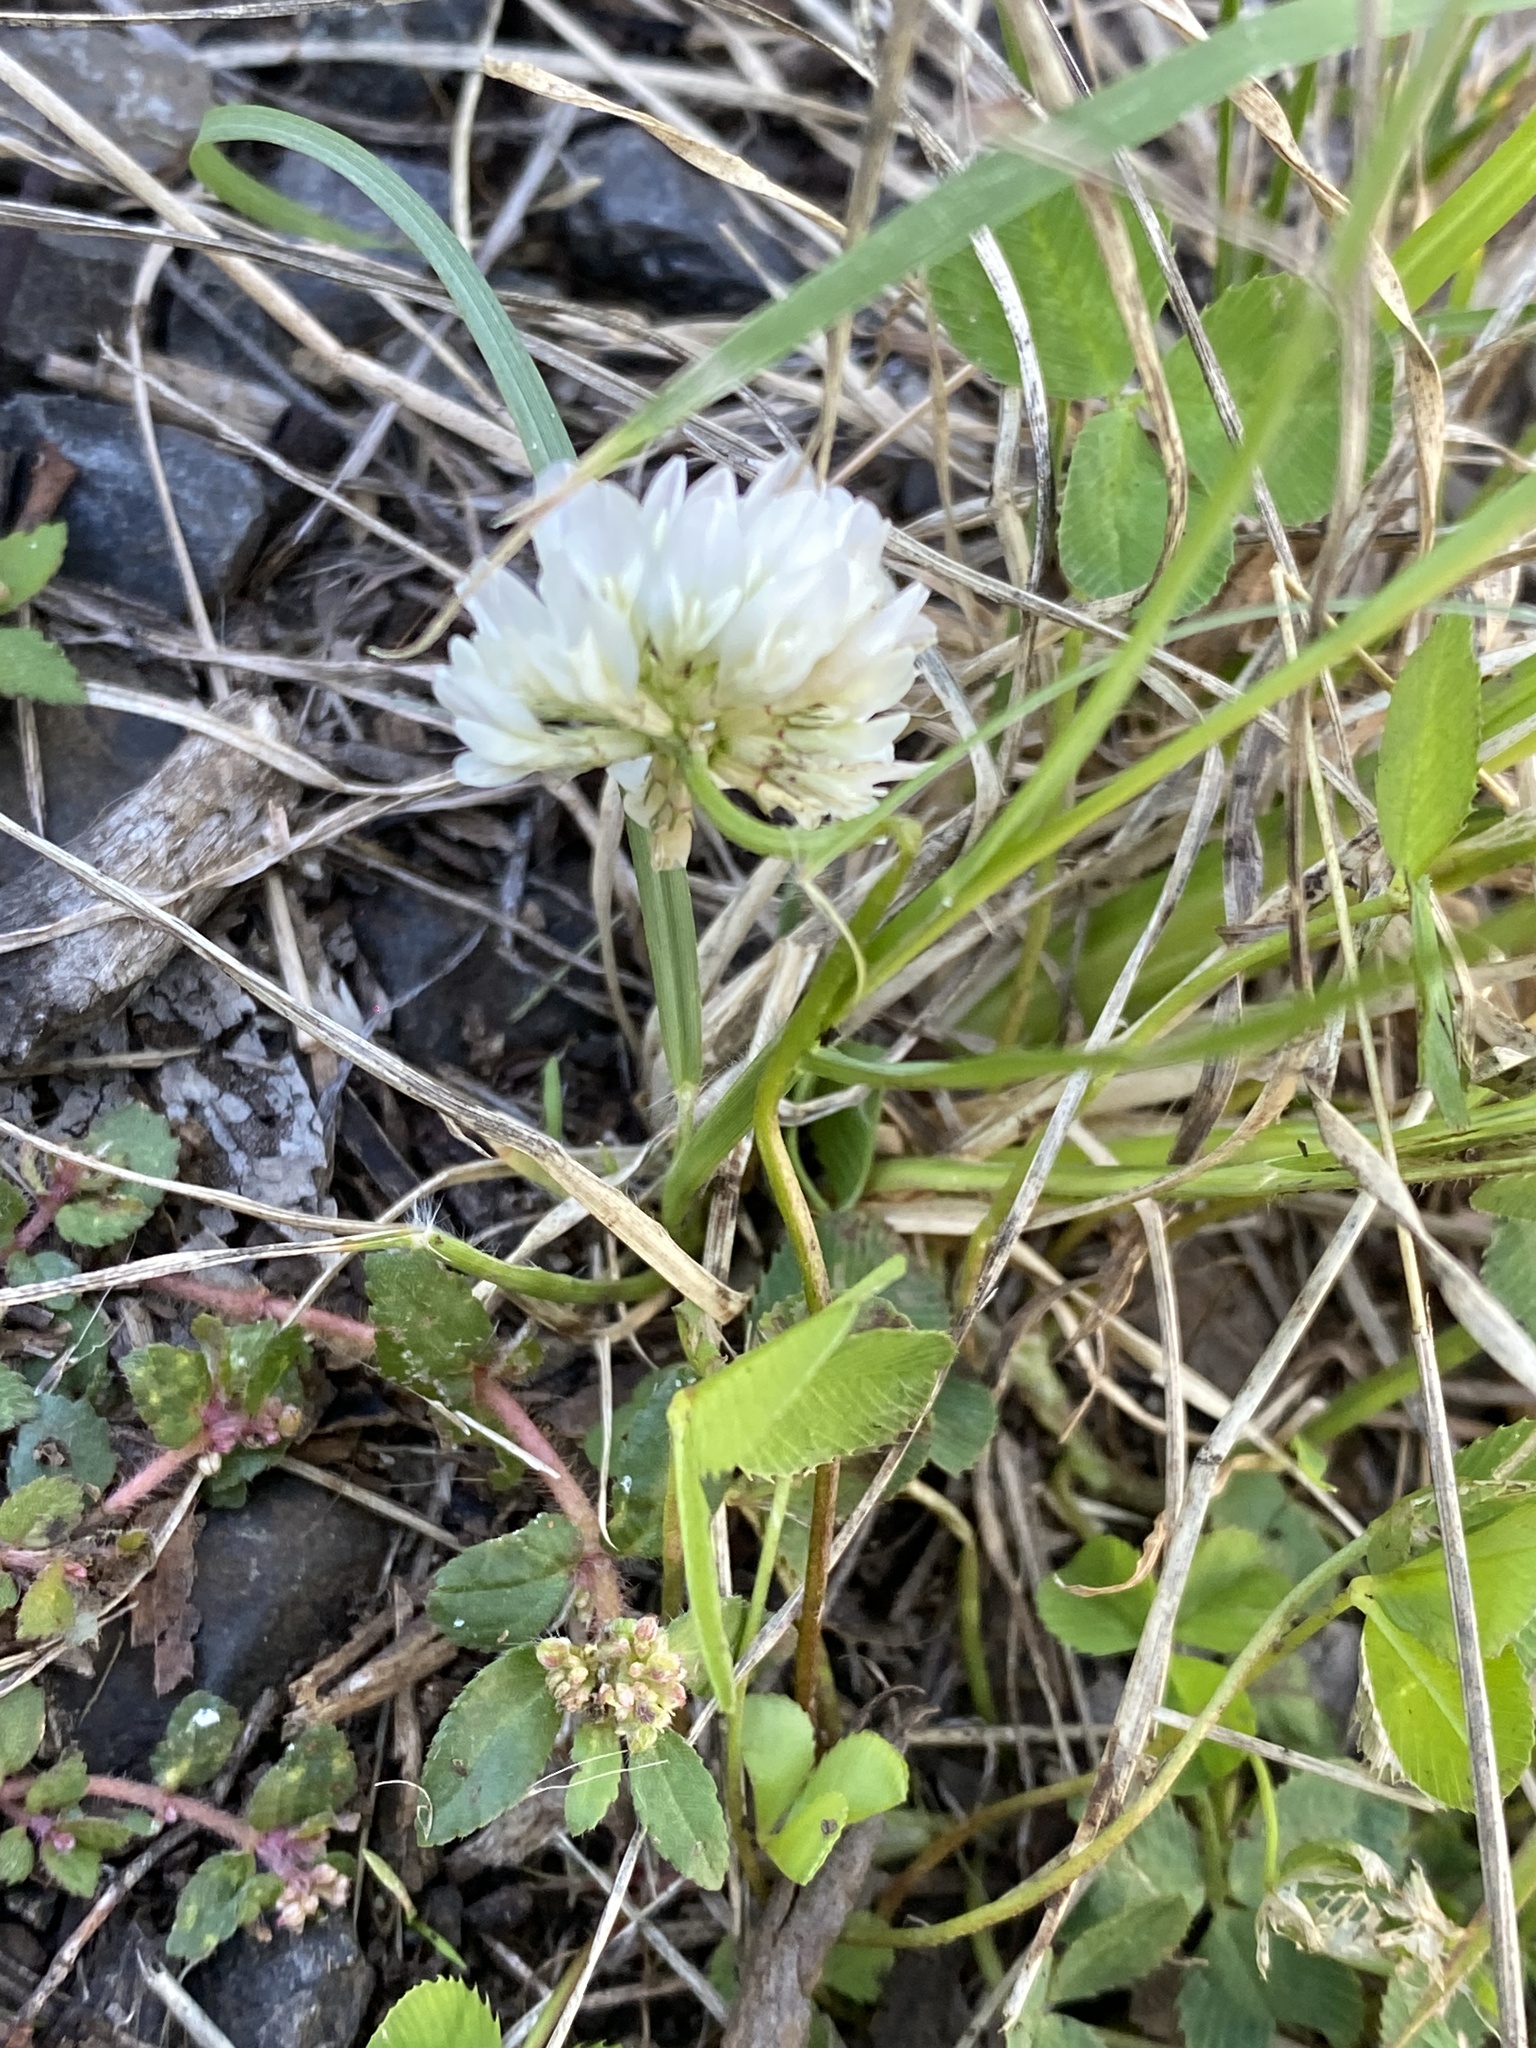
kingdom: Plantae
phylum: Tracheophyta
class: Magnoliopsida
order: Fabales
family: Fabaceae
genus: Trifolium
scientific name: Trifolium repens
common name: White clover
